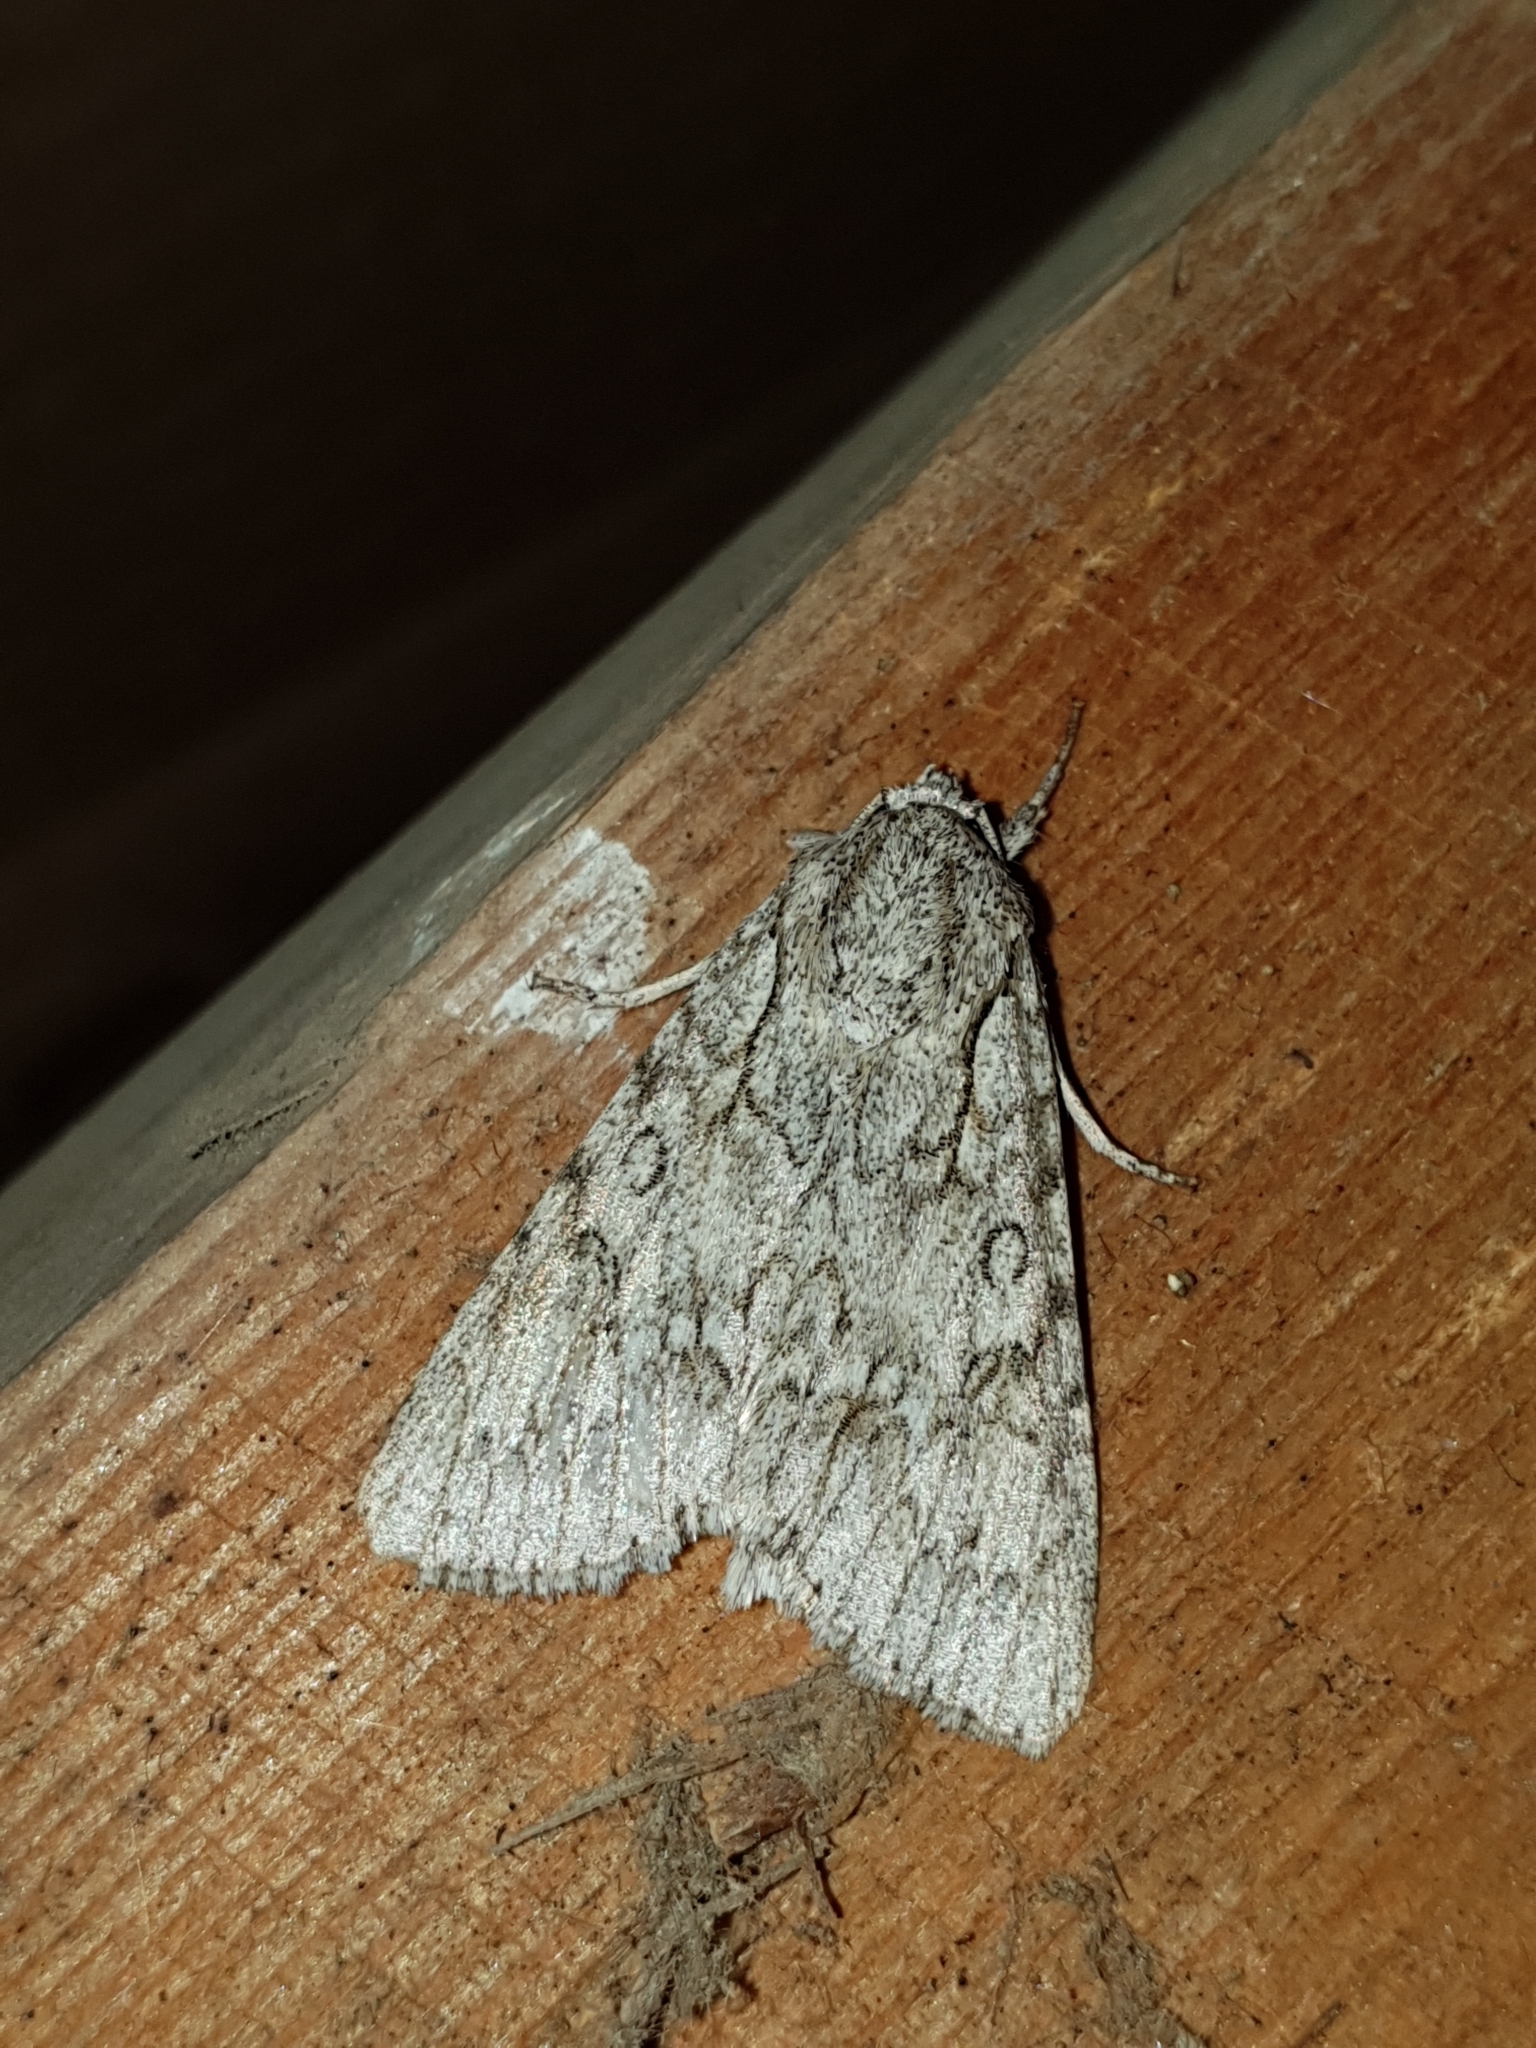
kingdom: Animalia
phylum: Arthropoda
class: Insecta
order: Lepidoptera
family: Noctuidae
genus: Acronicta
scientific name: Acronicta aceris
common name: Sycamore
